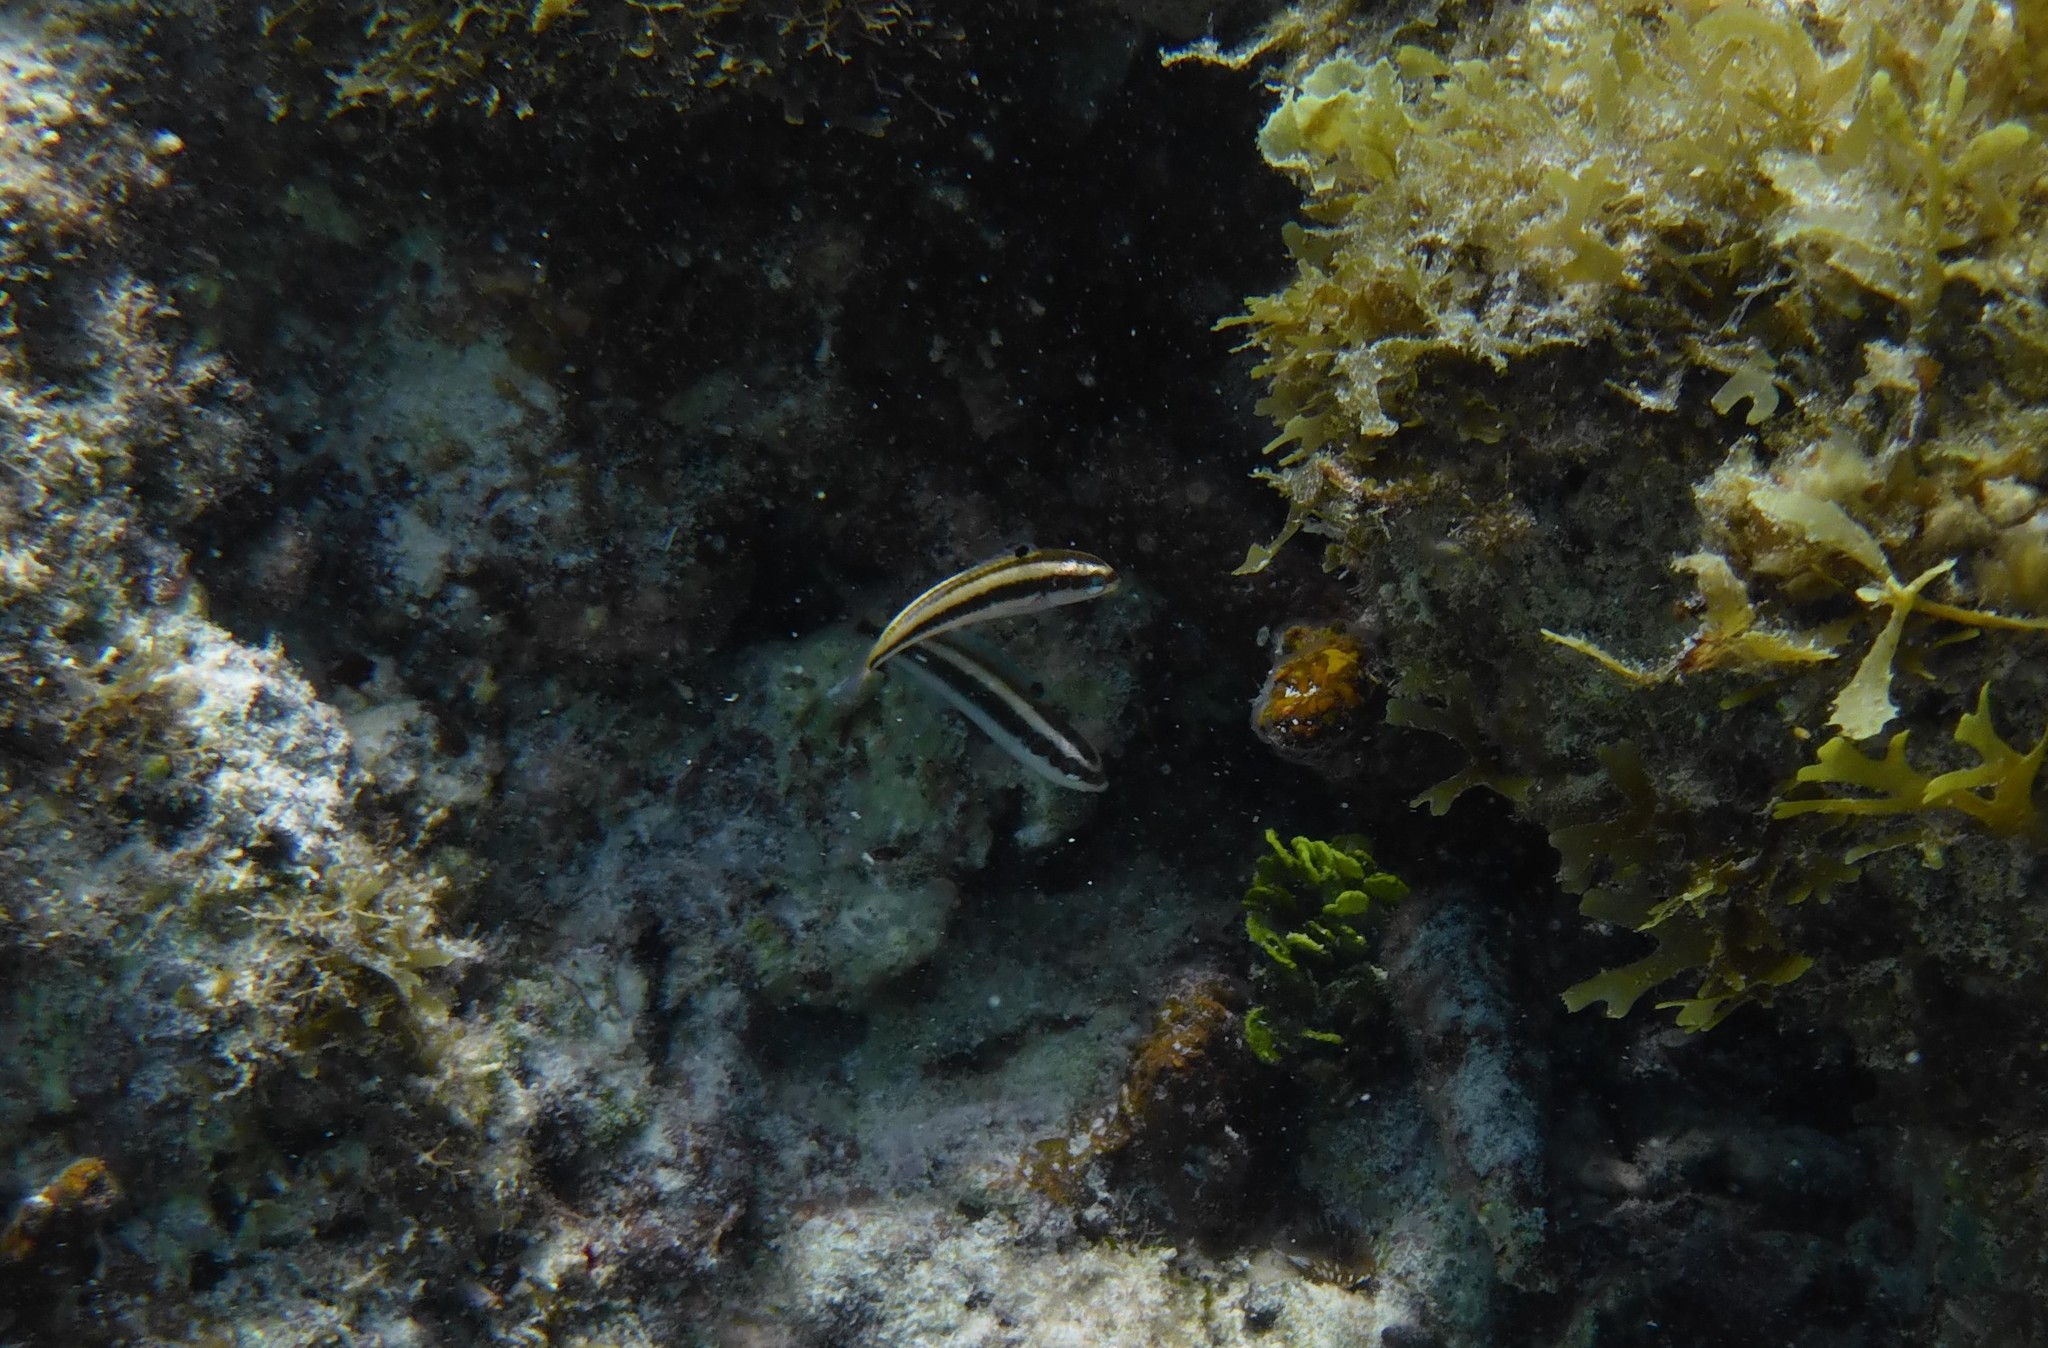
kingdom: Animalia
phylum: Chordata
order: Perciformes
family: Labridae
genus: Thalassoma
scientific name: Thalassoma bifasciatum
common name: Bluehead wrasse
